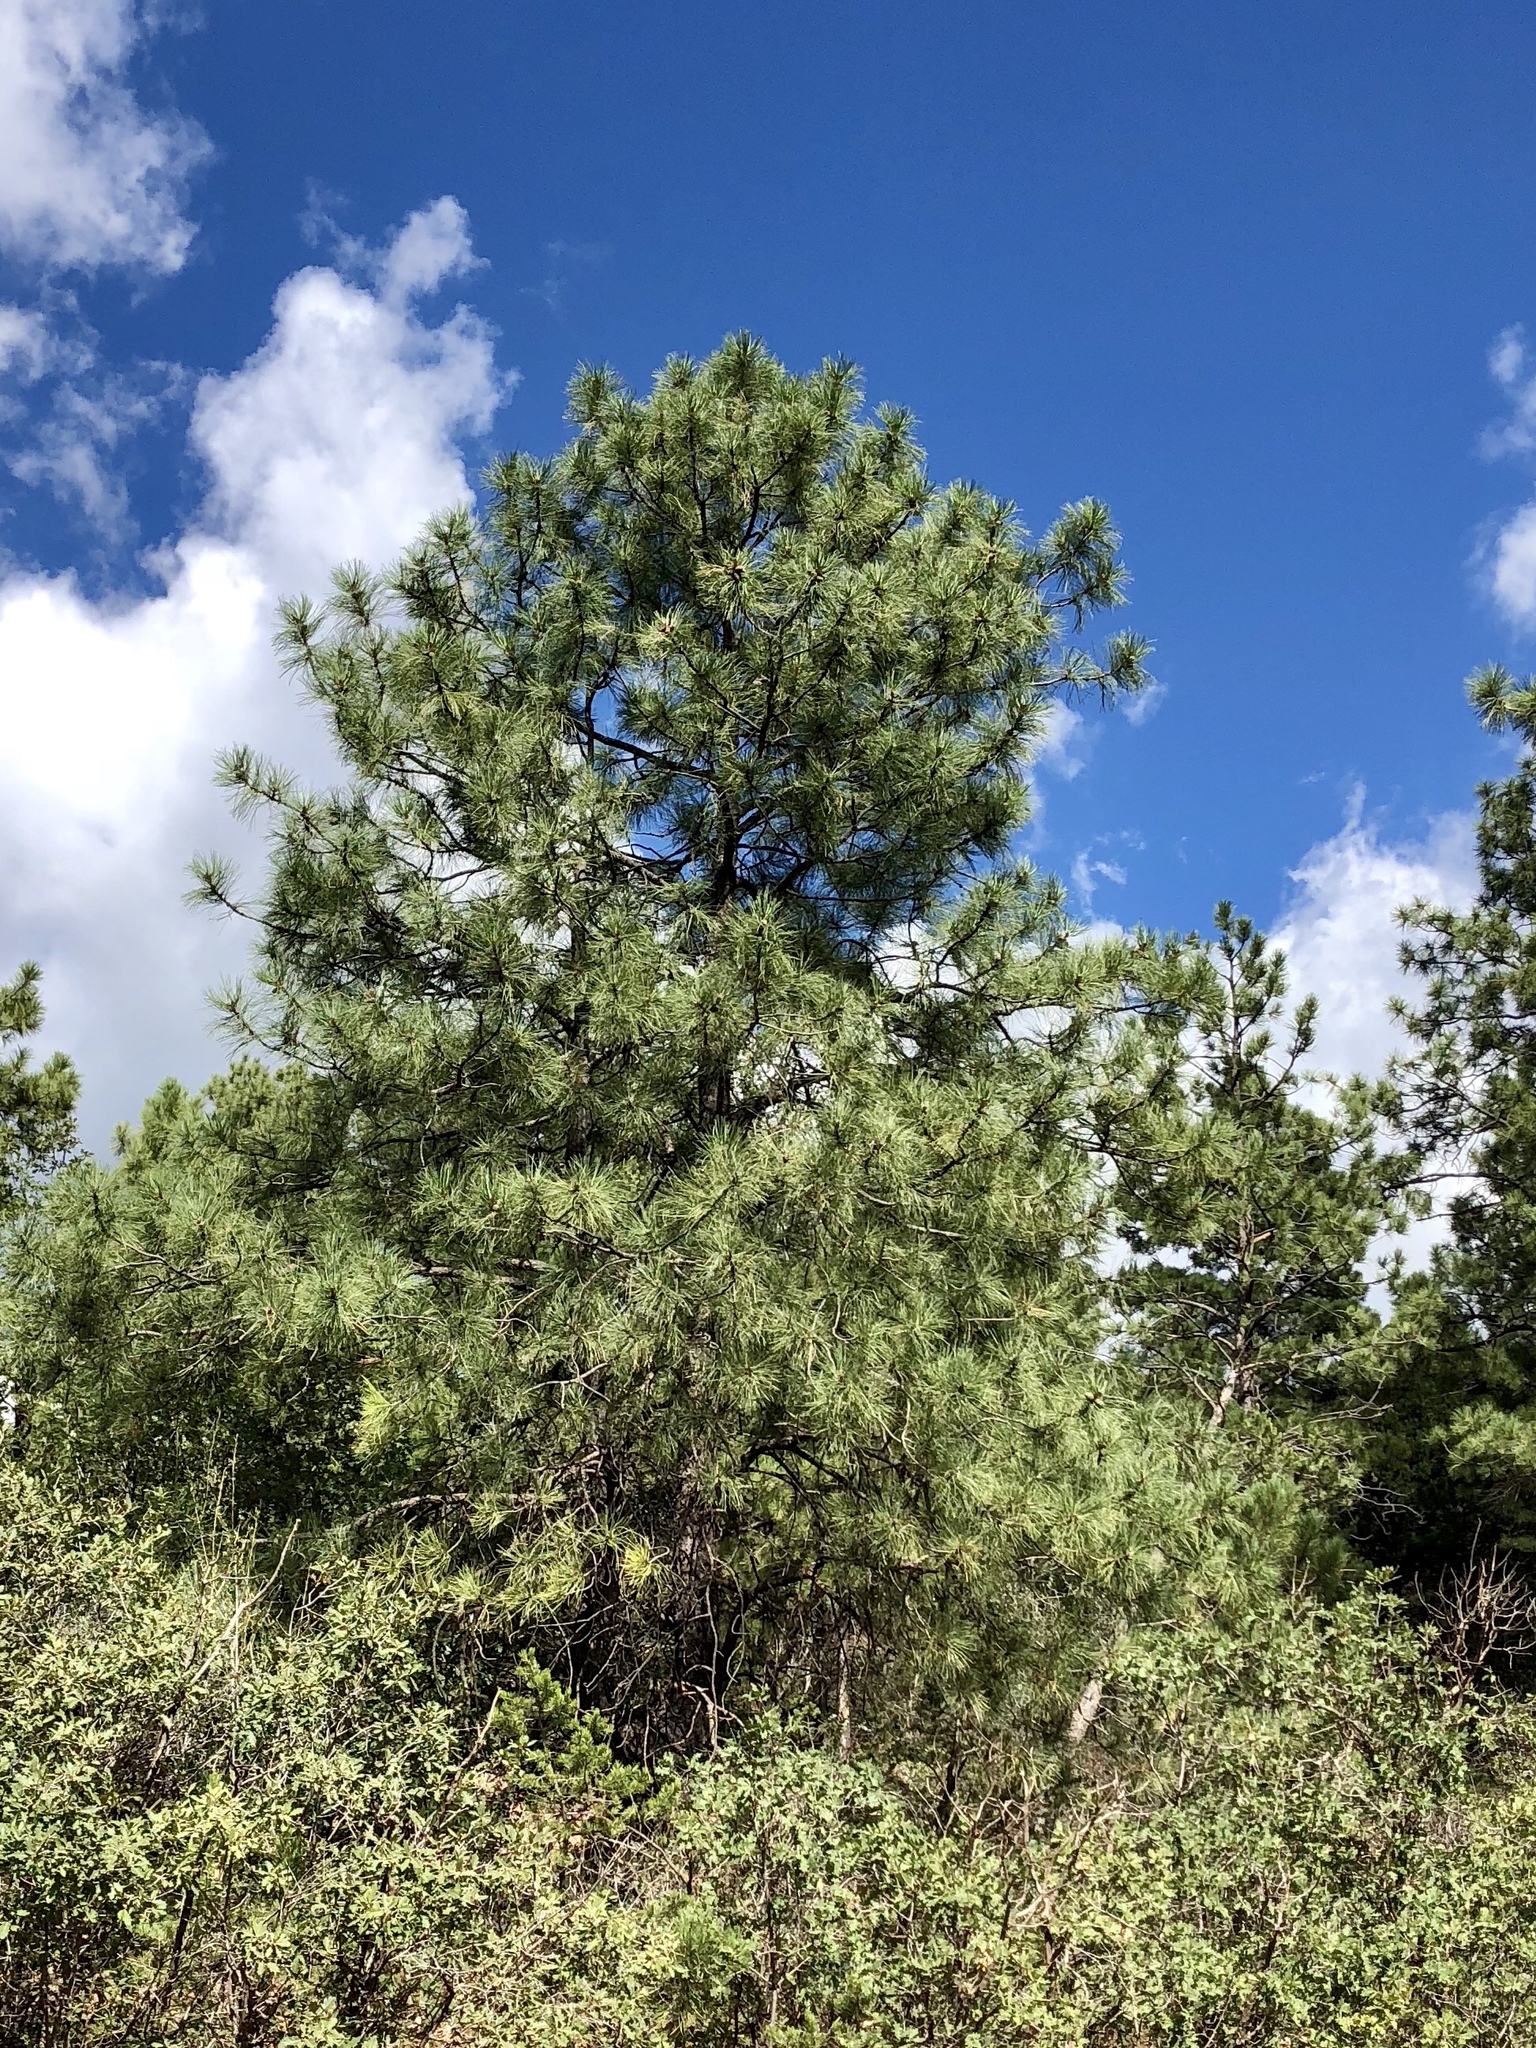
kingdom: Plantae
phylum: Tracheophyta
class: Pinopsida
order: Pinales
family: Pinaceae
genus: Pinus
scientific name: Pinus ponderosa
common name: Western yellow-pine
